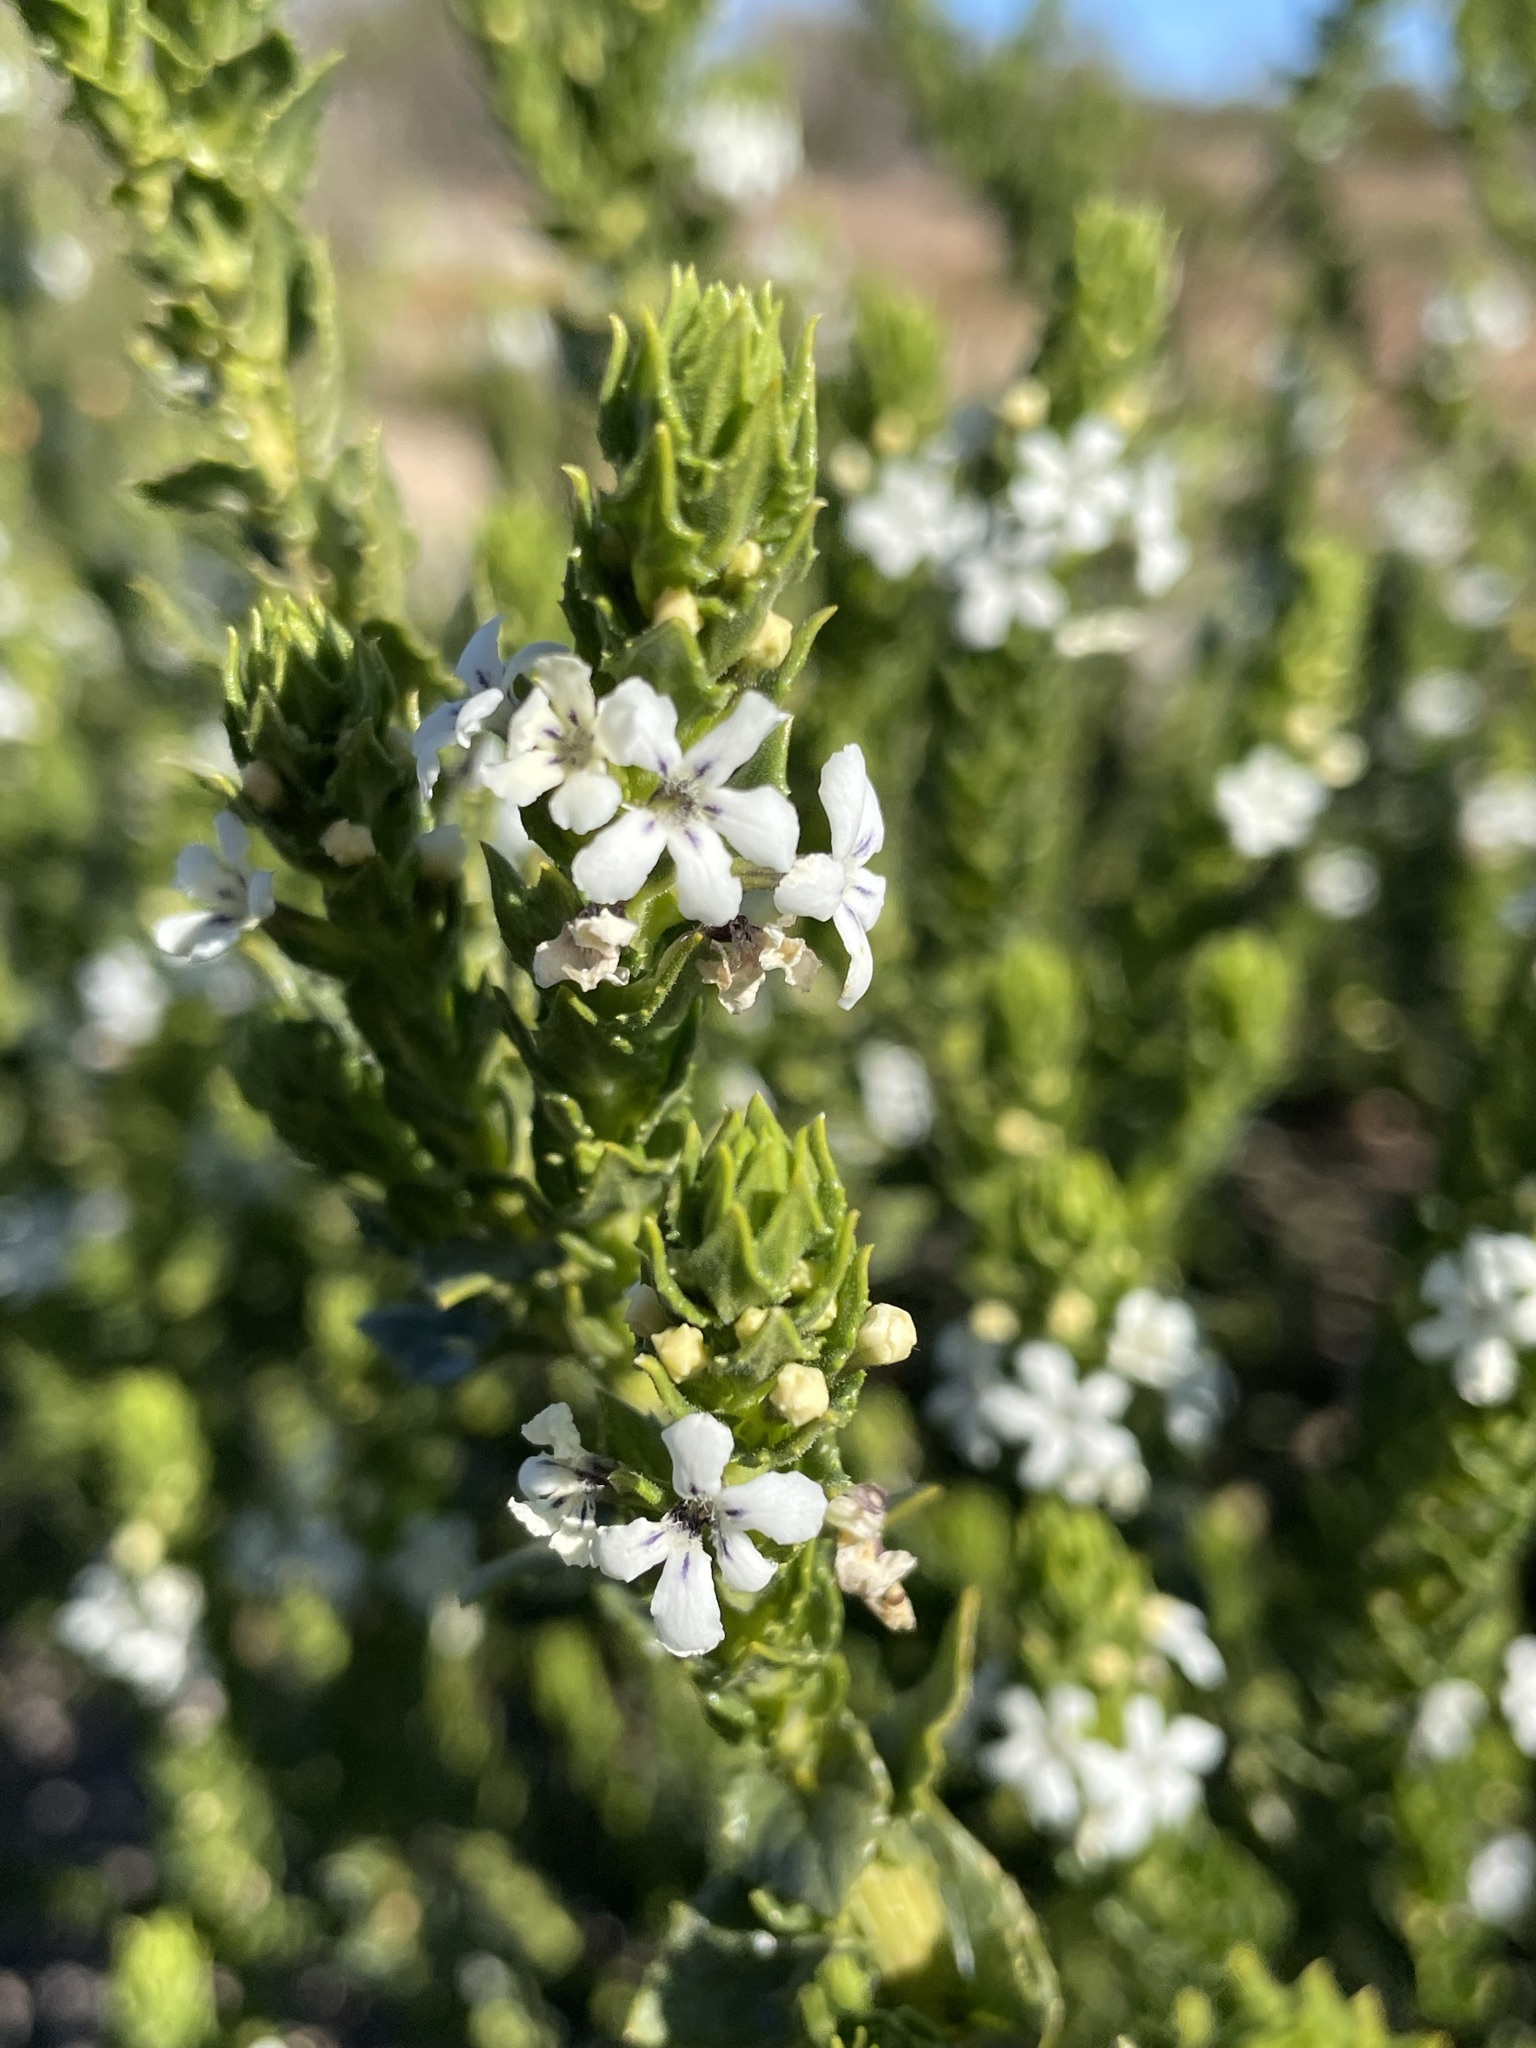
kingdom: Plantae
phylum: Tracheophyta
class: Magnoliopsida
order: Lamiales
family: Scrophulariaceae
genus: Oftia
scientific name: Oftia africana
